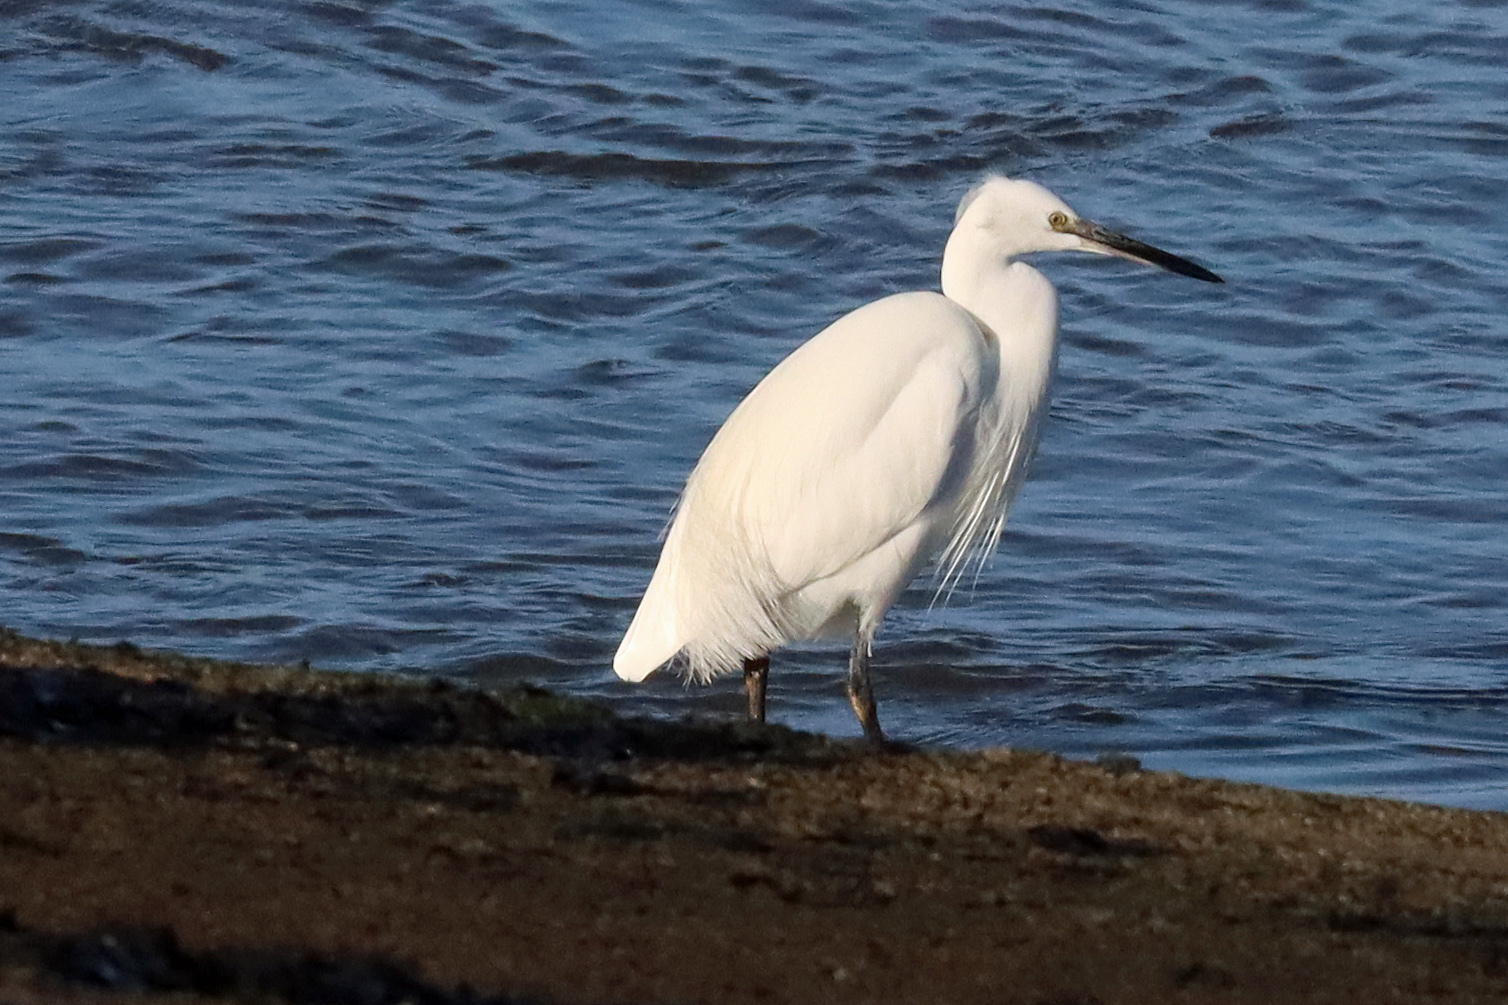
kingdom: Animalia
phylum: Chordata
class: Aves
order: Pelecaniformes
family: Ardeidae
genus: Egretta
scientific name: Egretta garzetta
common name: Little egret
